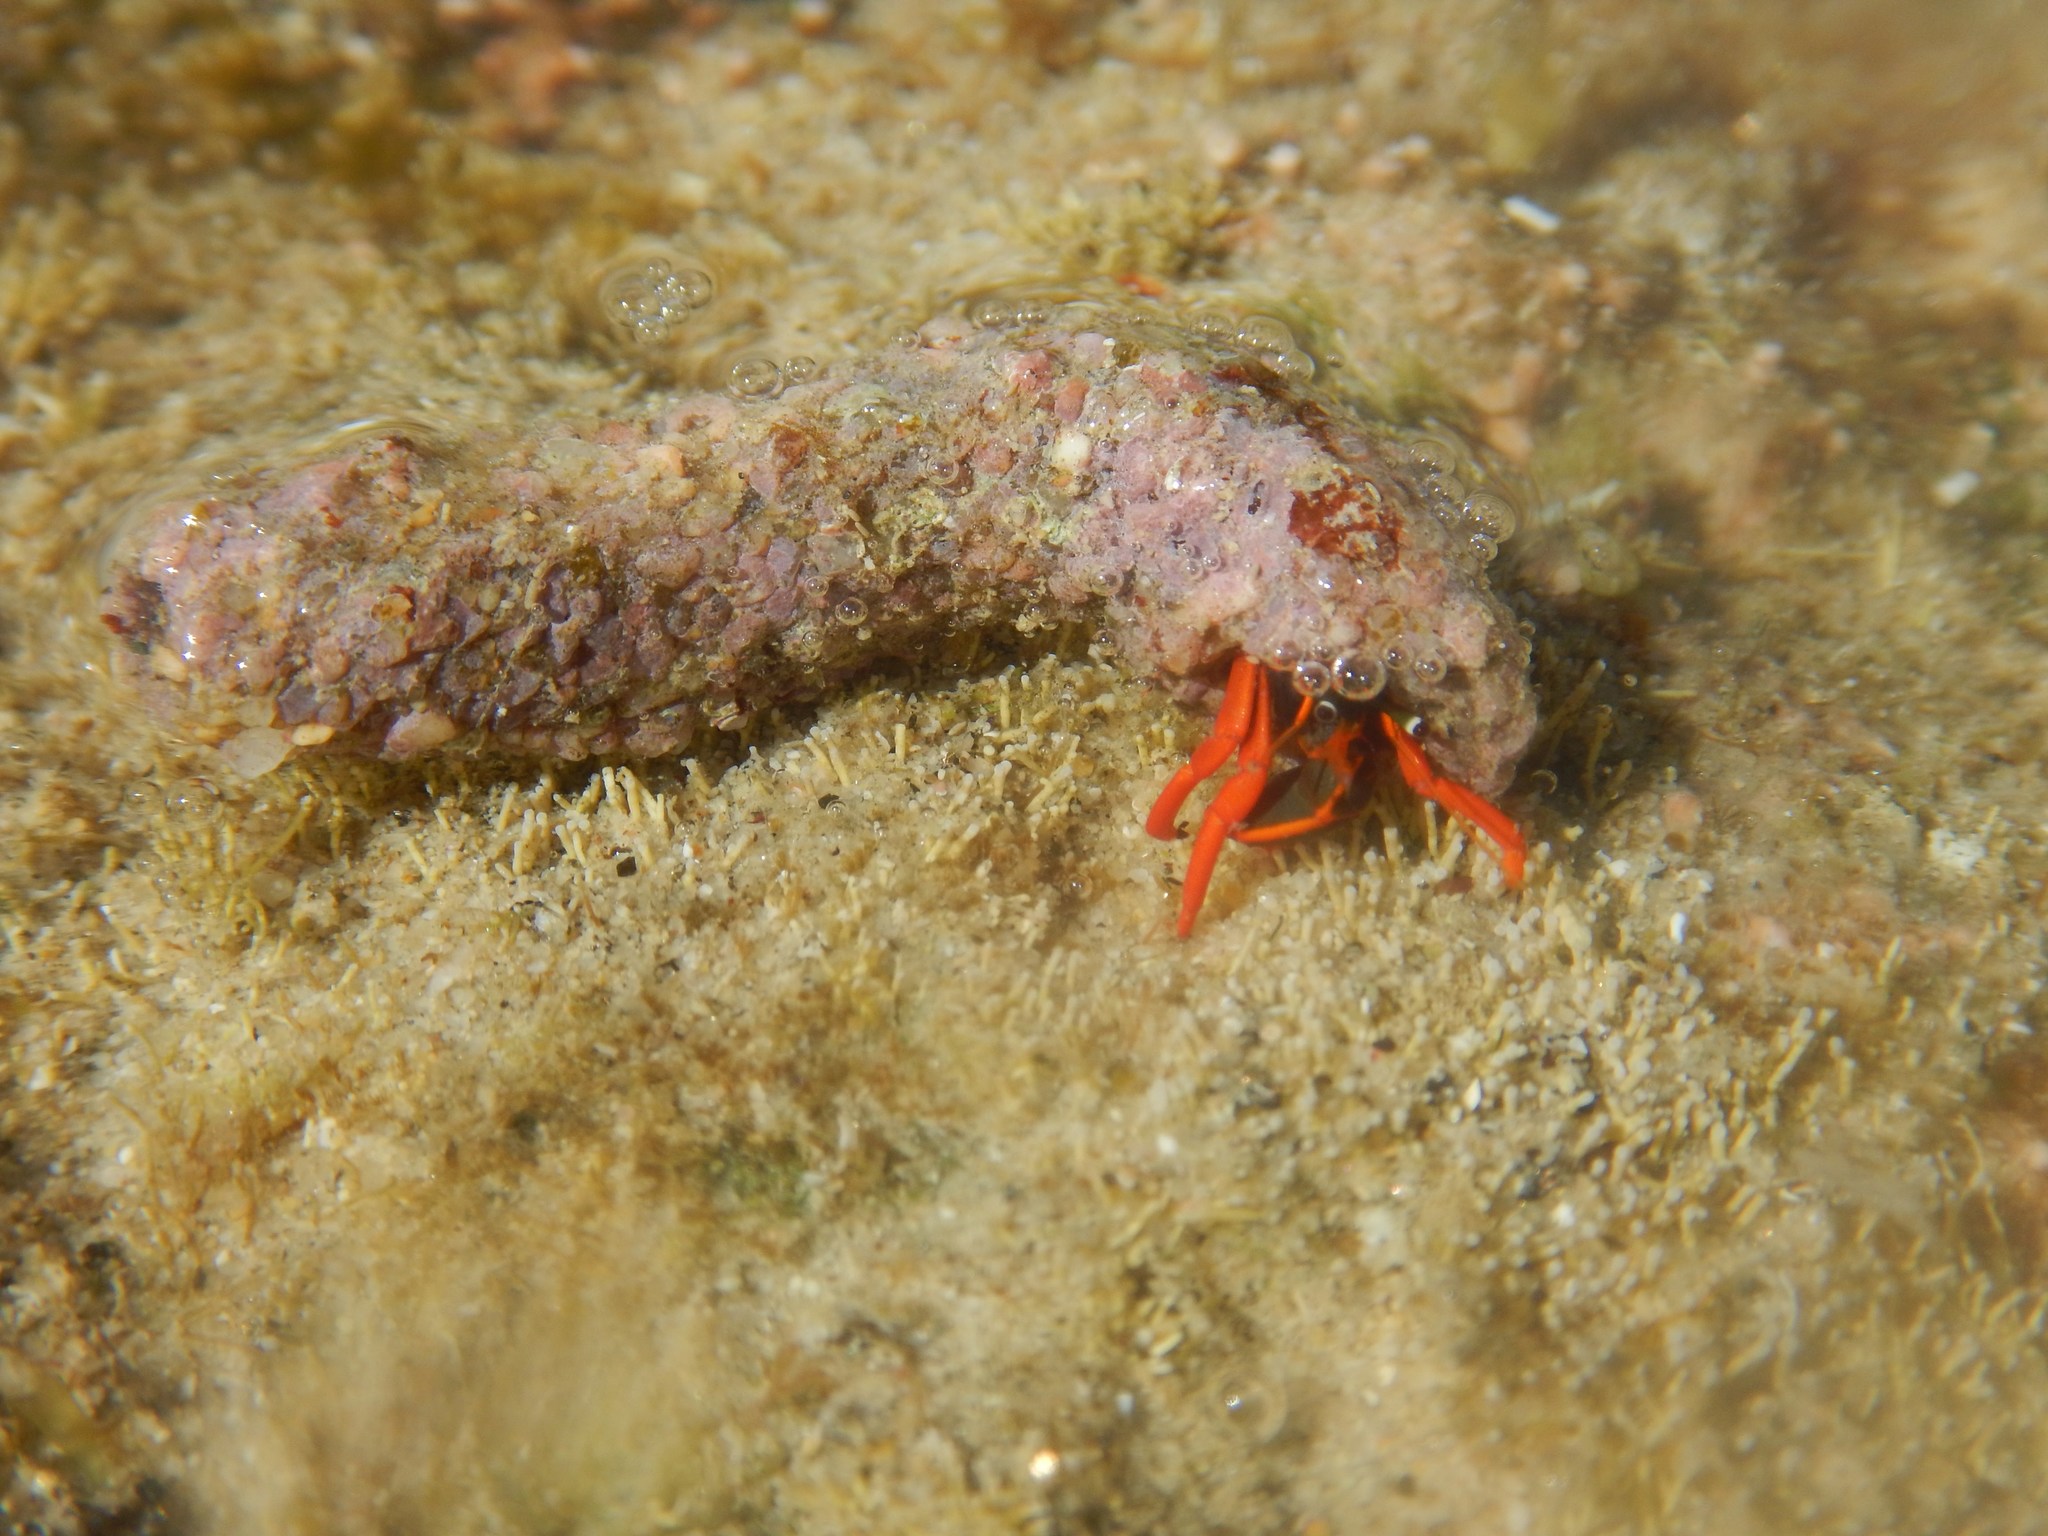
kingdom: Animalia
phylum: Arthropoda
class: Malacostraca
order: Decapoda
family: Diogenidae
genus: Calcinus
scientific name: Calcinus californiensis
